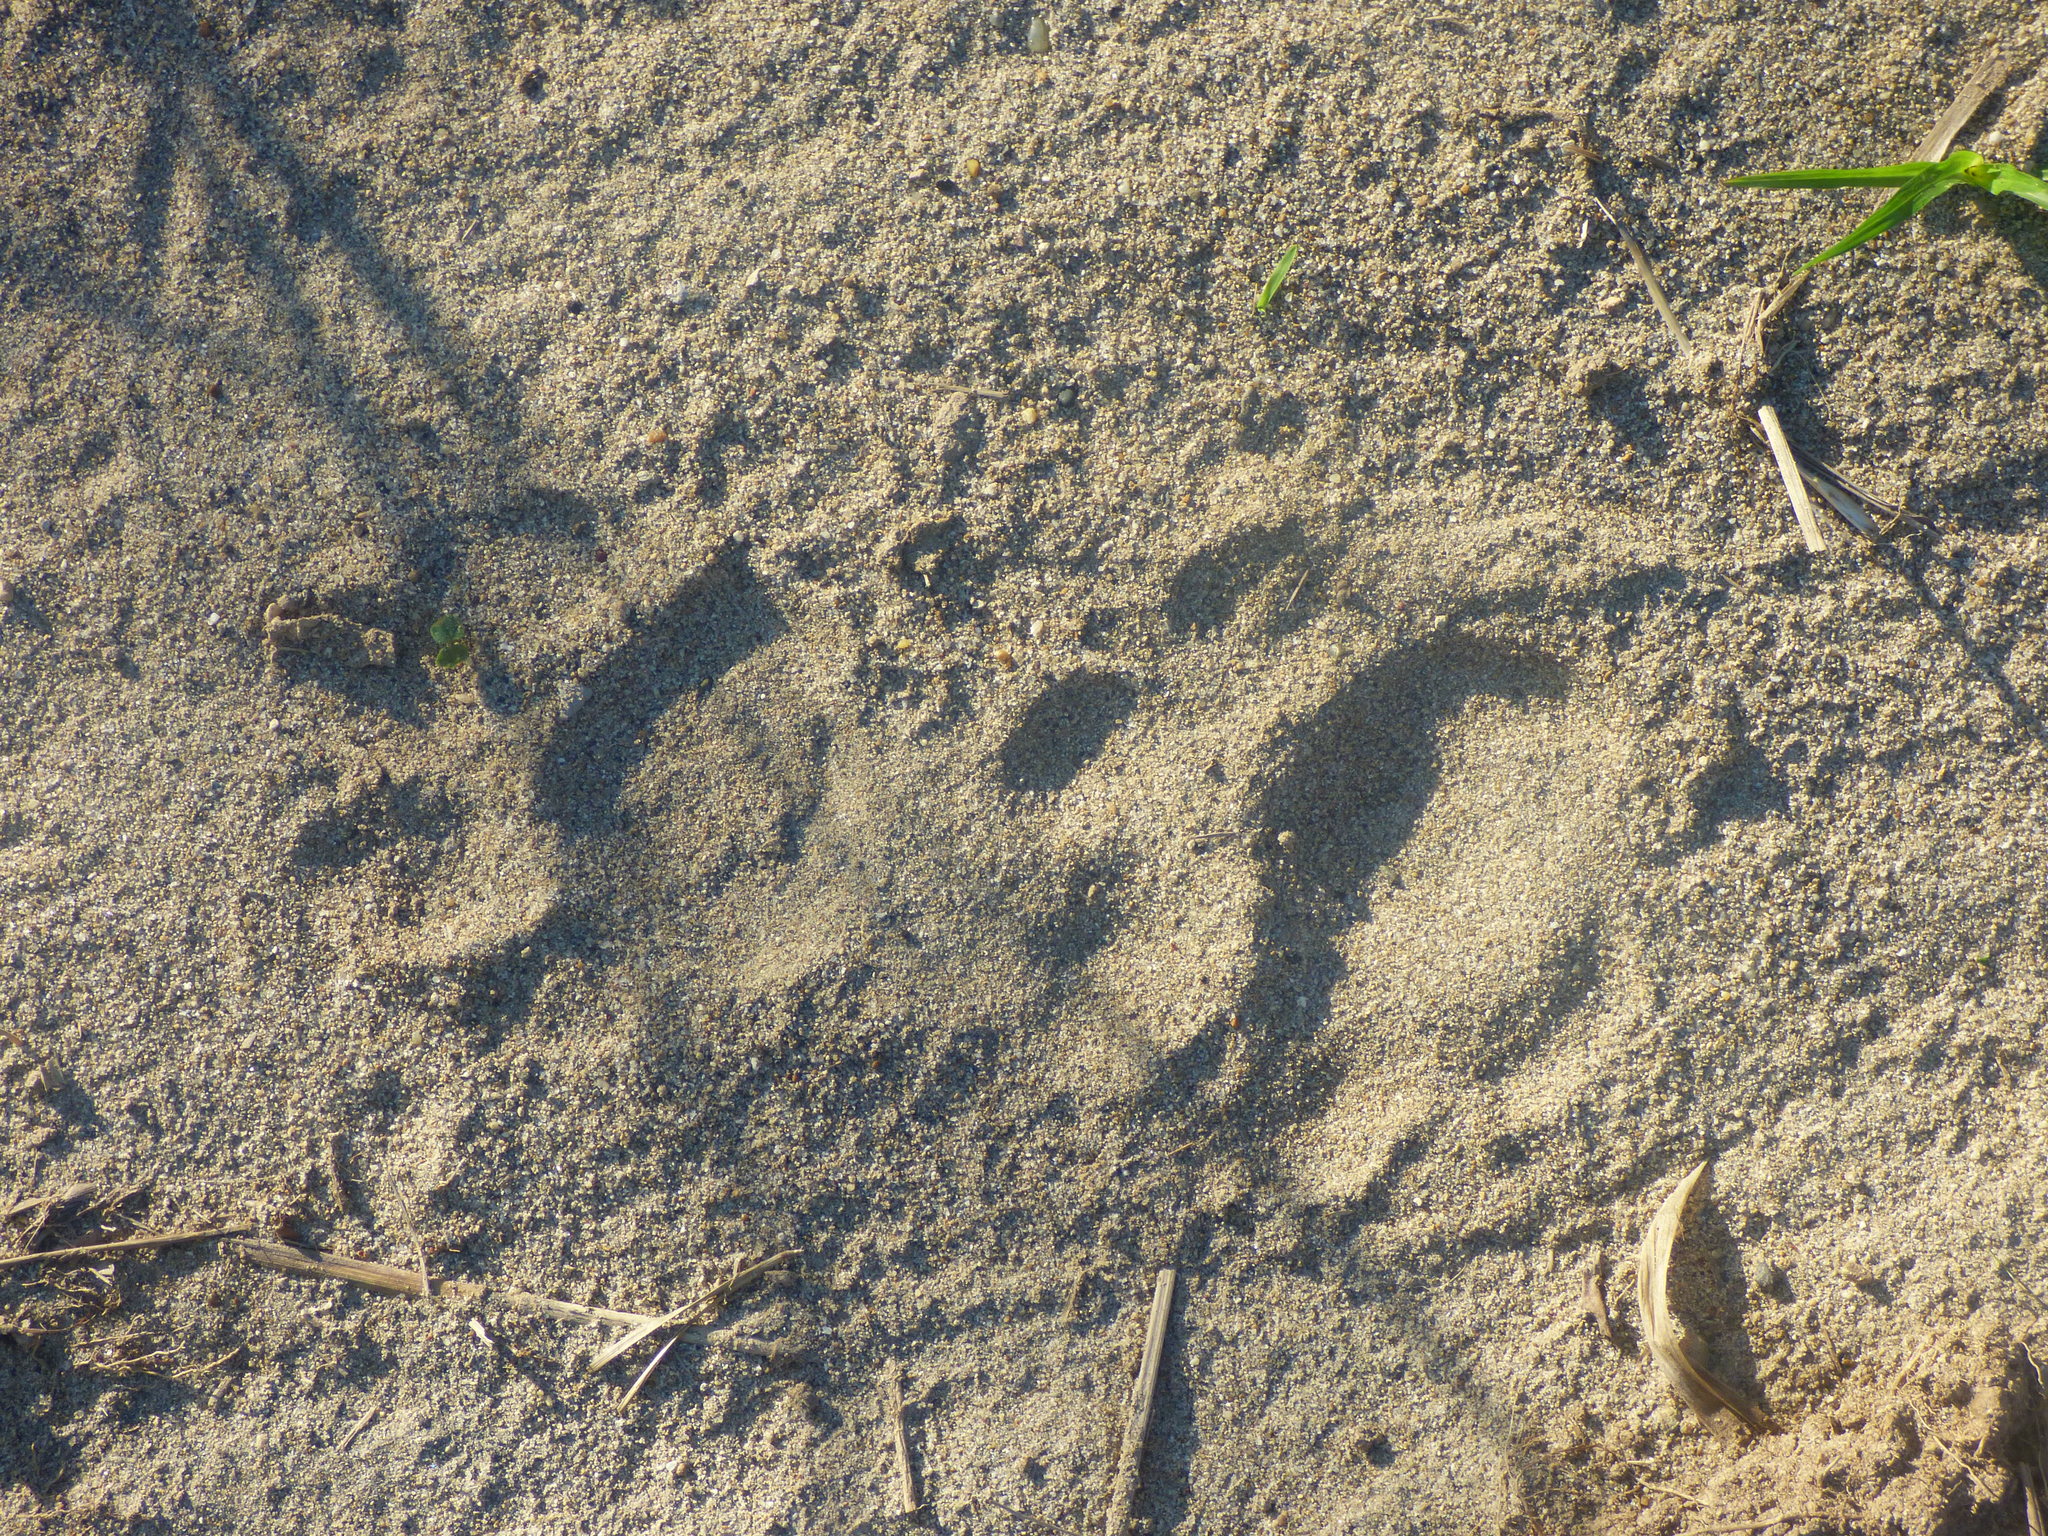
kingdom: Animalia
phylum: Chordata
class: Mammalia
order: Carnivora
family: Felidae
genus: Panthera
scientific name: Panthera onca
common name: Jaguar
